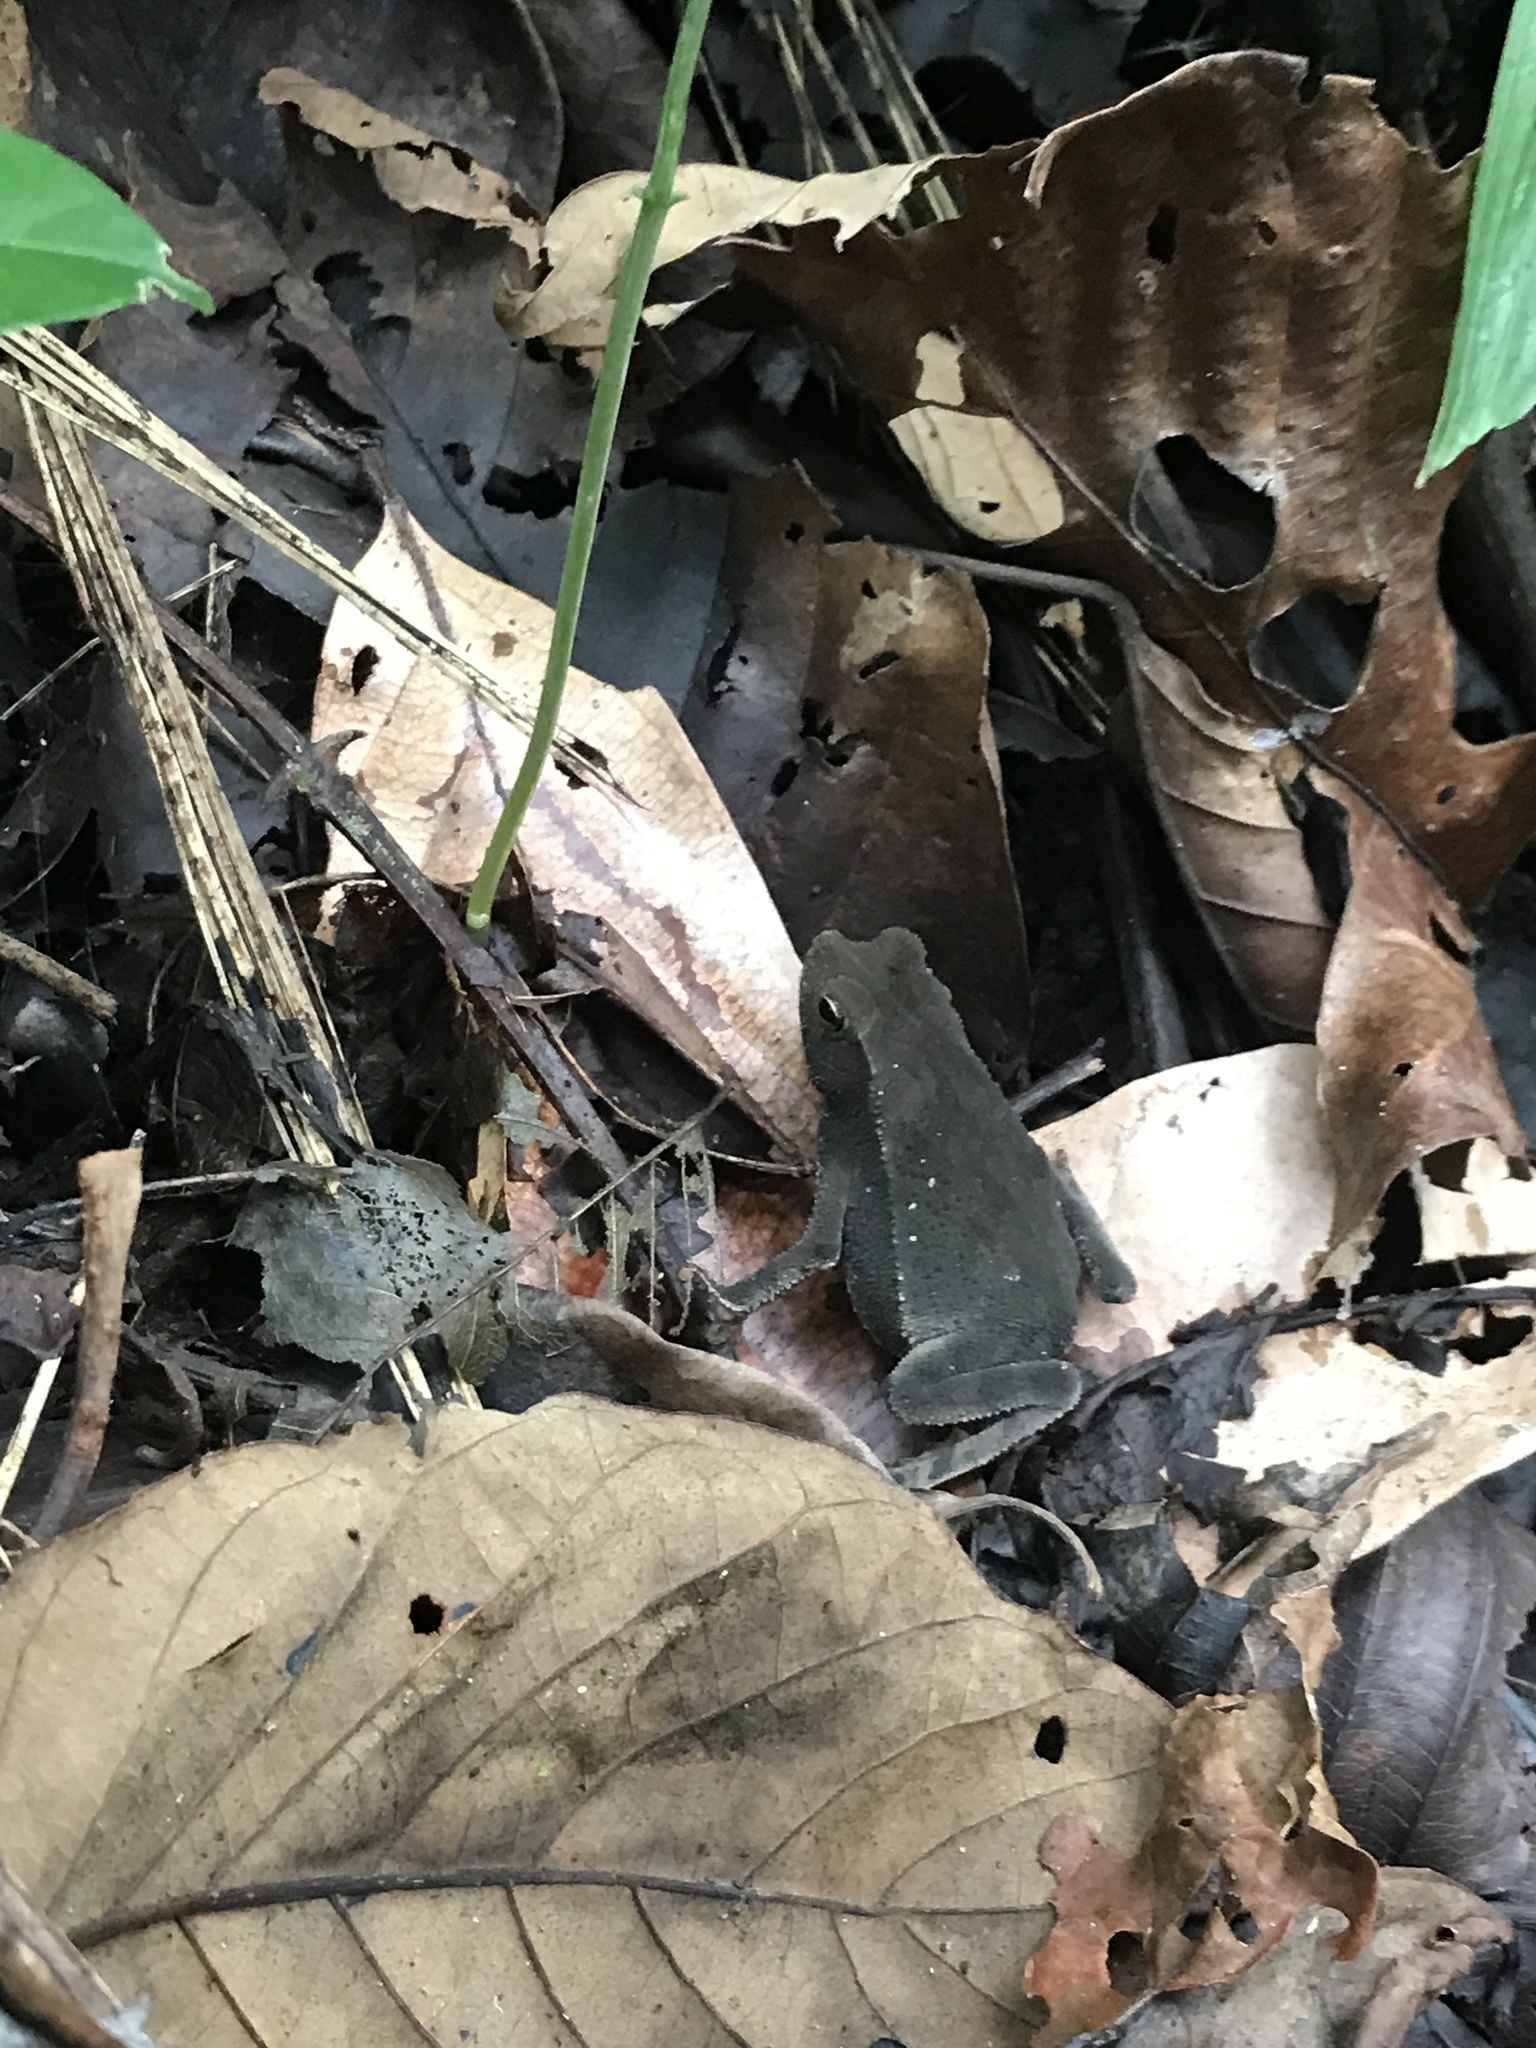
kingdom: Animalia
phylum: Chordata
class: Amphibia
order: Anura
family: Bufonidae
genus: Rhinella
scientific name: Rhinella alata
